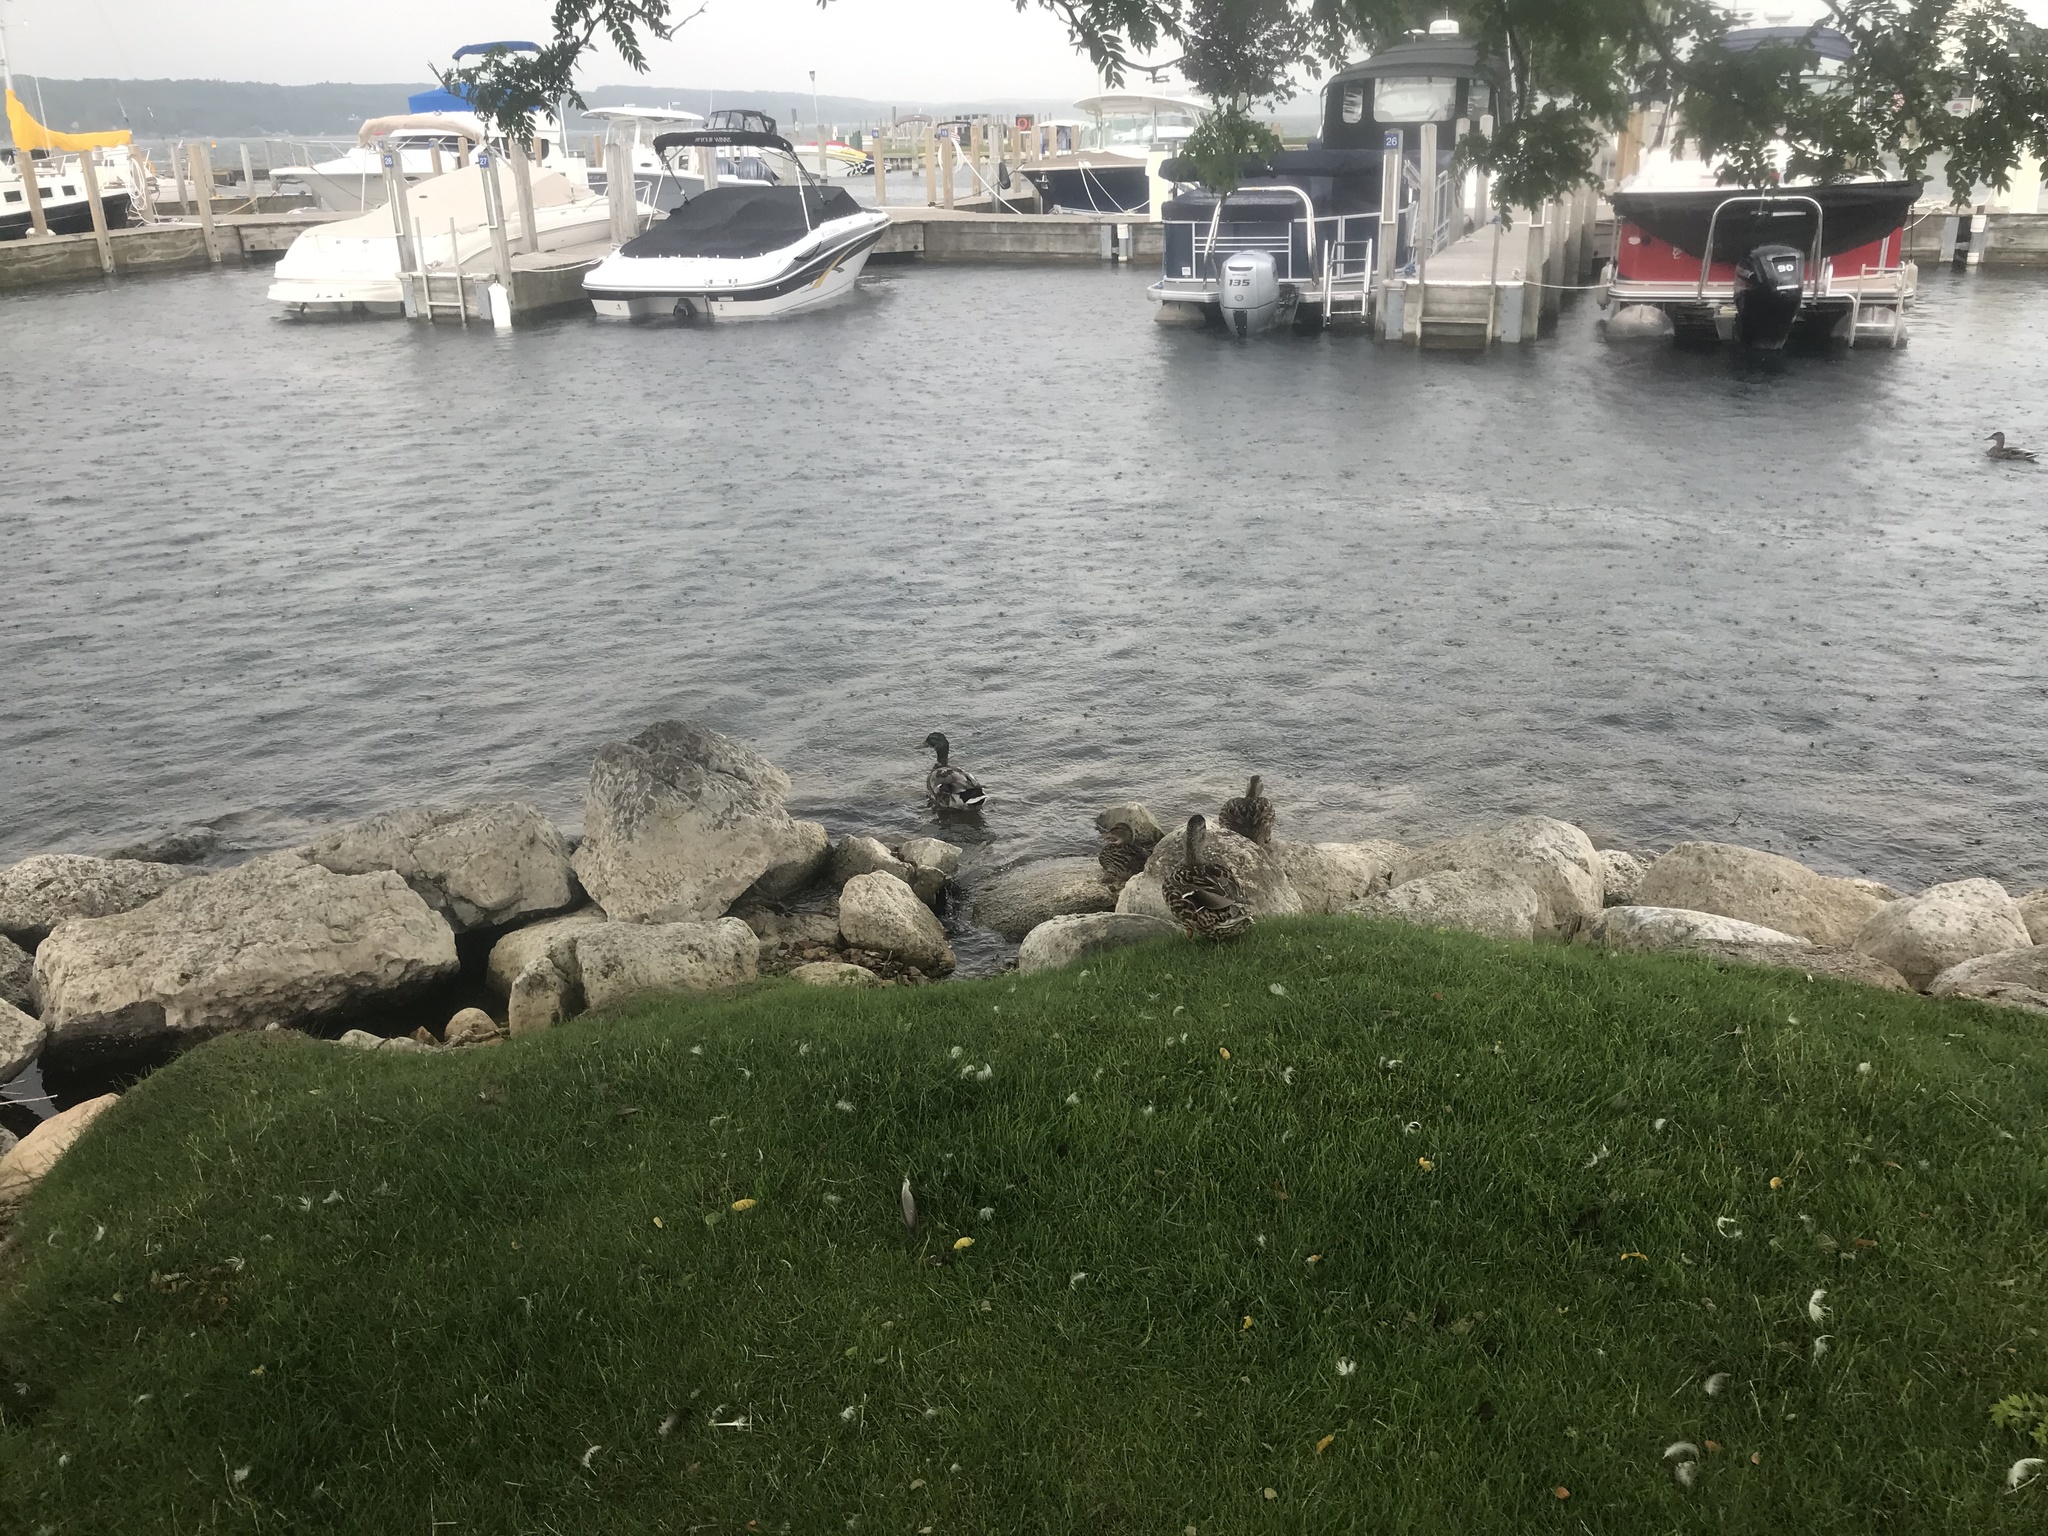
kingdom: Animalia
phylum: Chordata
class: Aves
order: Anseriformes
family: Anatidae
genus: Anas
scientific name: Anas platyrhynchos
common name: Mallard
